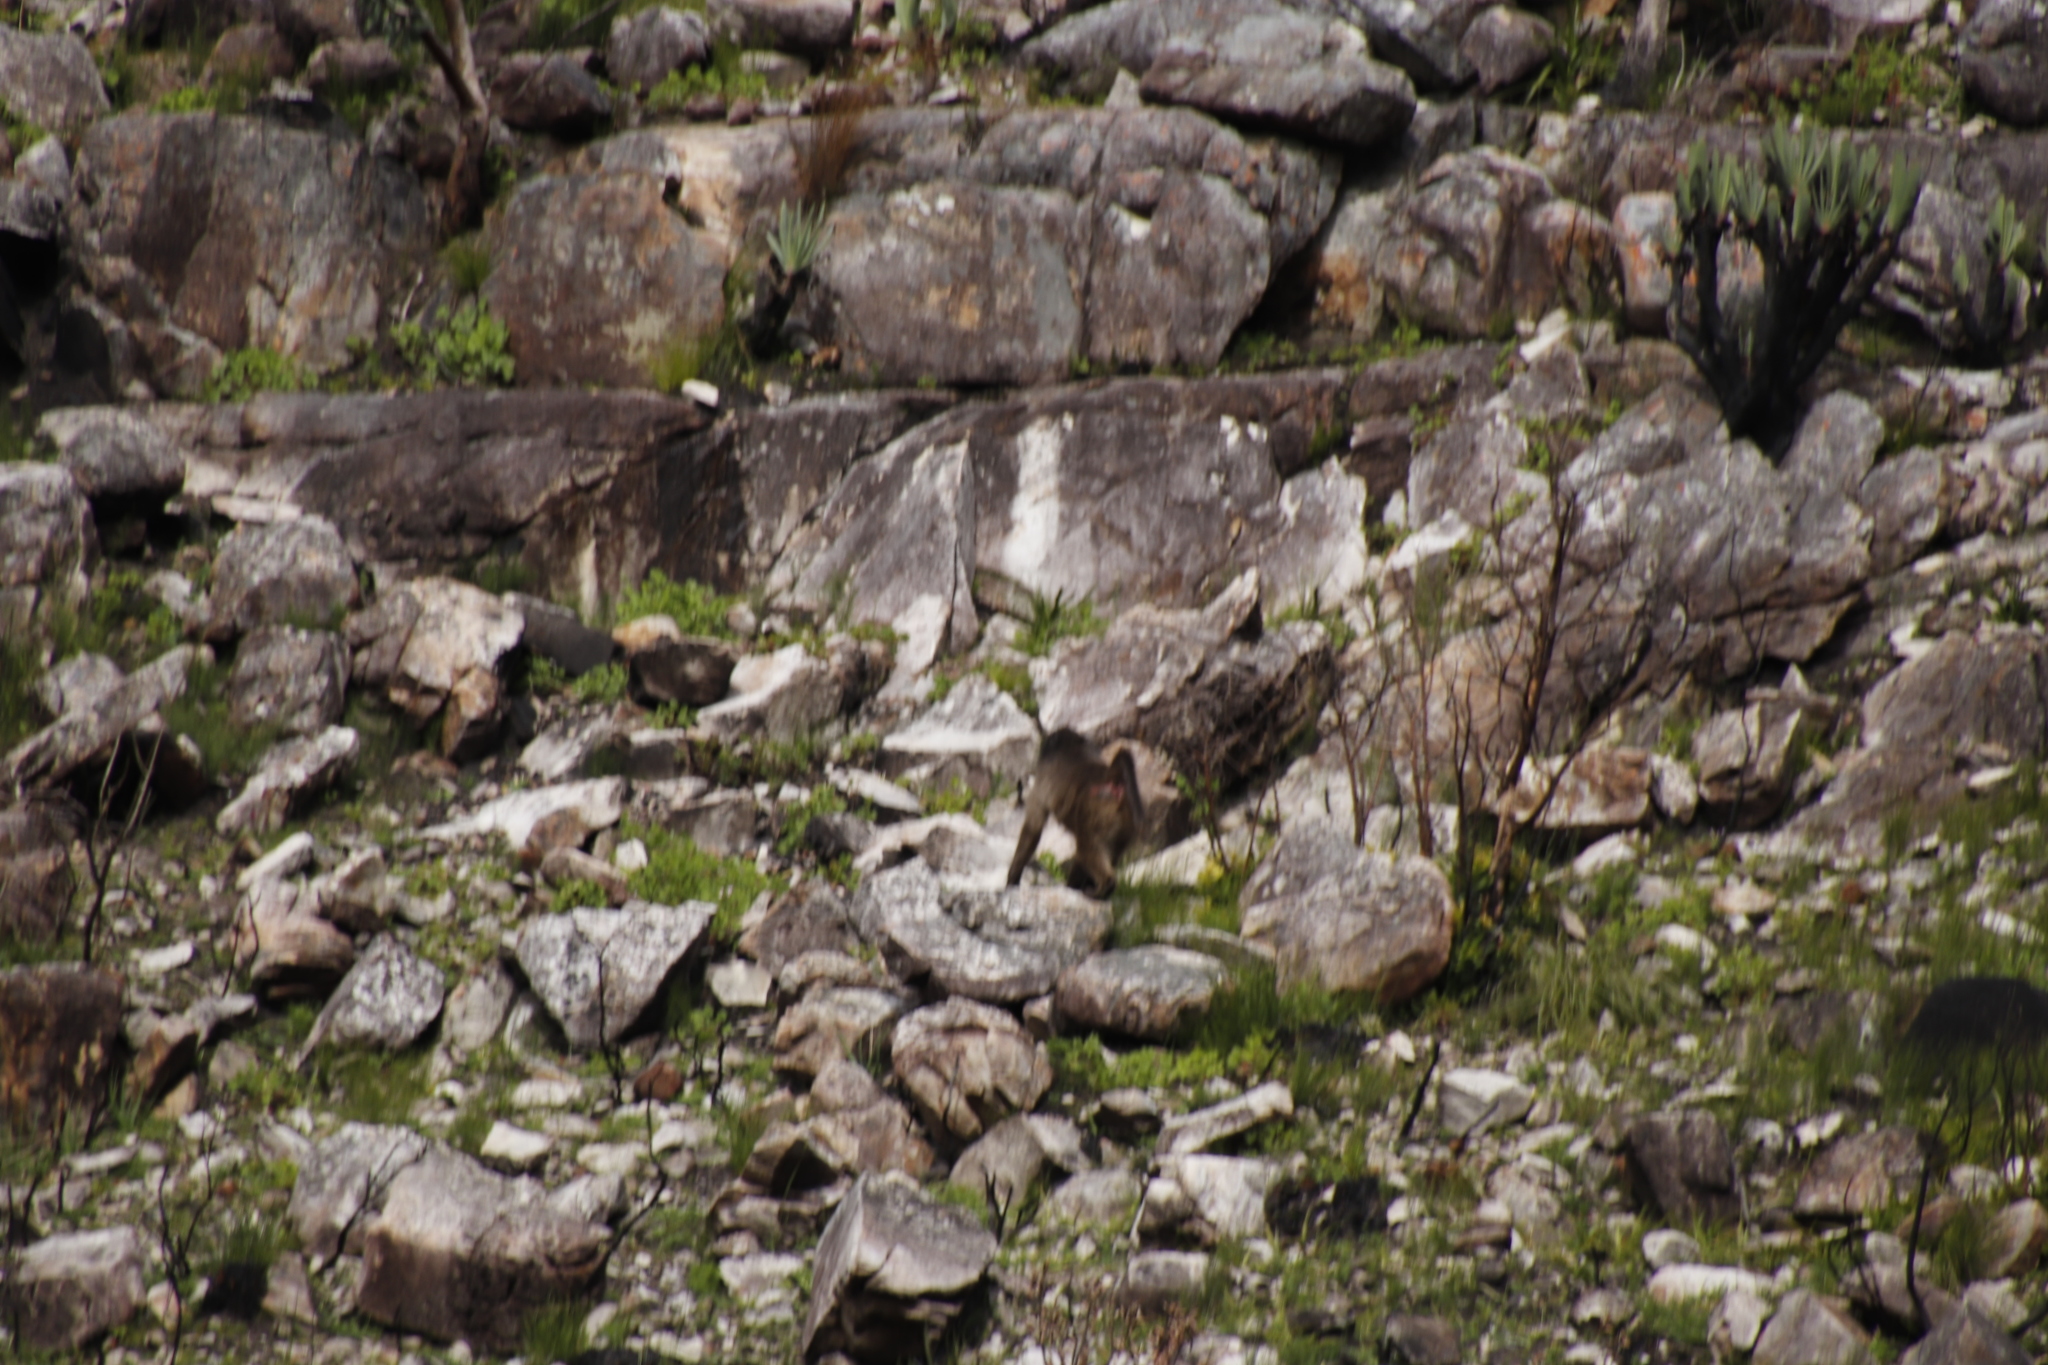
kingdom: Animalia
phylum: Chordata
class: Mammalia
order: Primates
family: Cercopithecidae
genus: Papio
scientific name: Papio ursinus
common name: Chacma baboon
